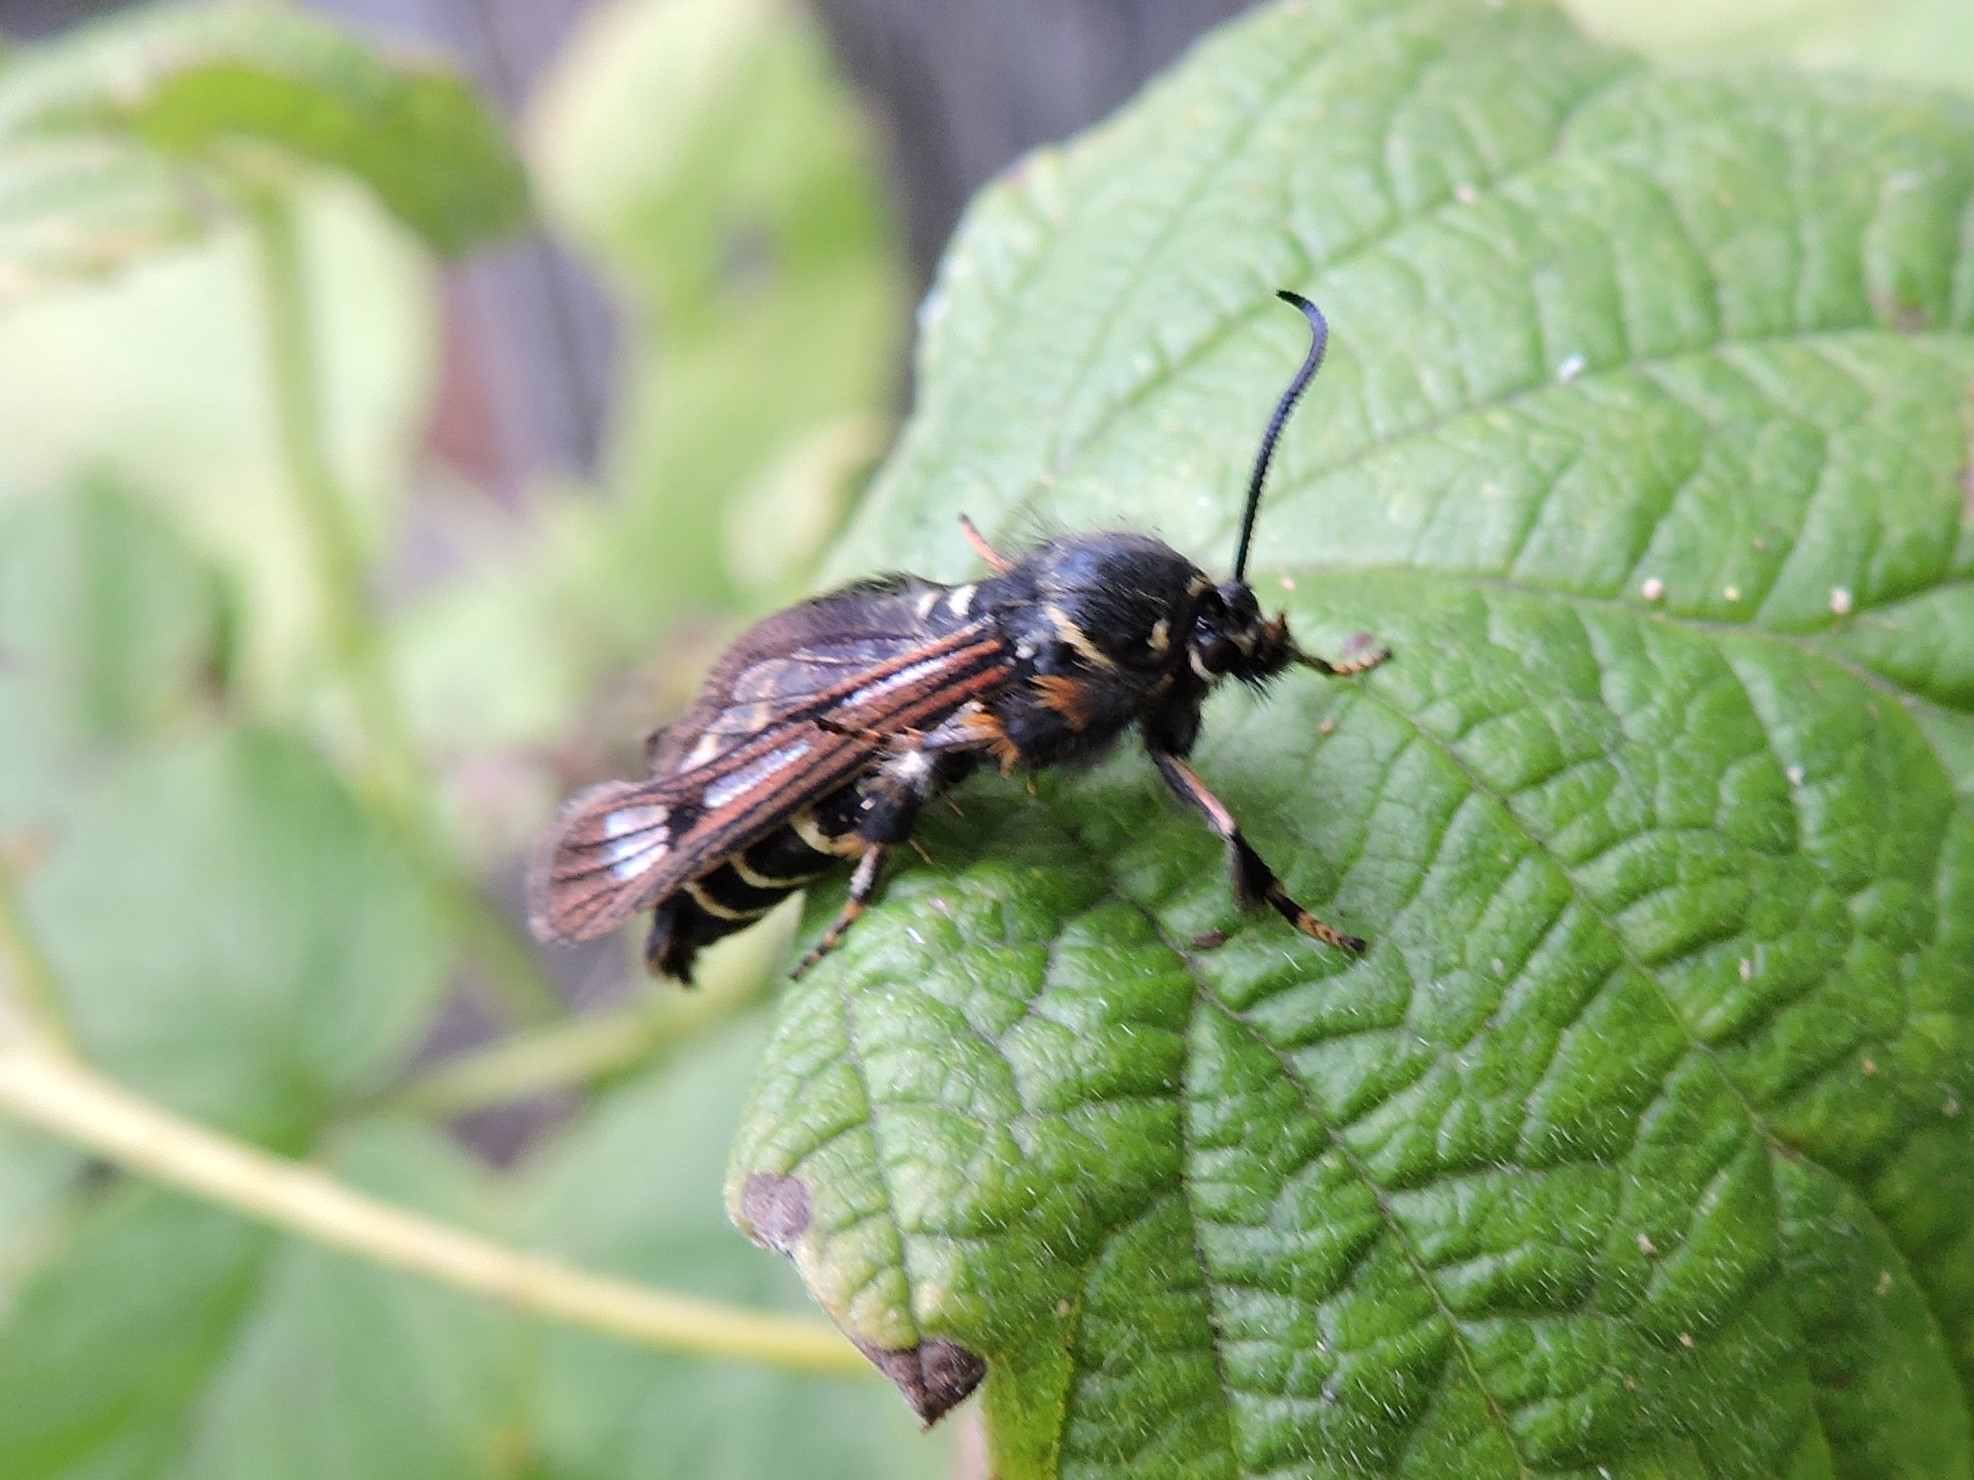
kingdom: Animalia
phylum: Arthropoda
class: Insecta
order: Lepidoptera
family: Sesiidae
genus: Pennisetia
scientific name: Pennisetia hylaeiformis
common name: Raspberry clearwing
